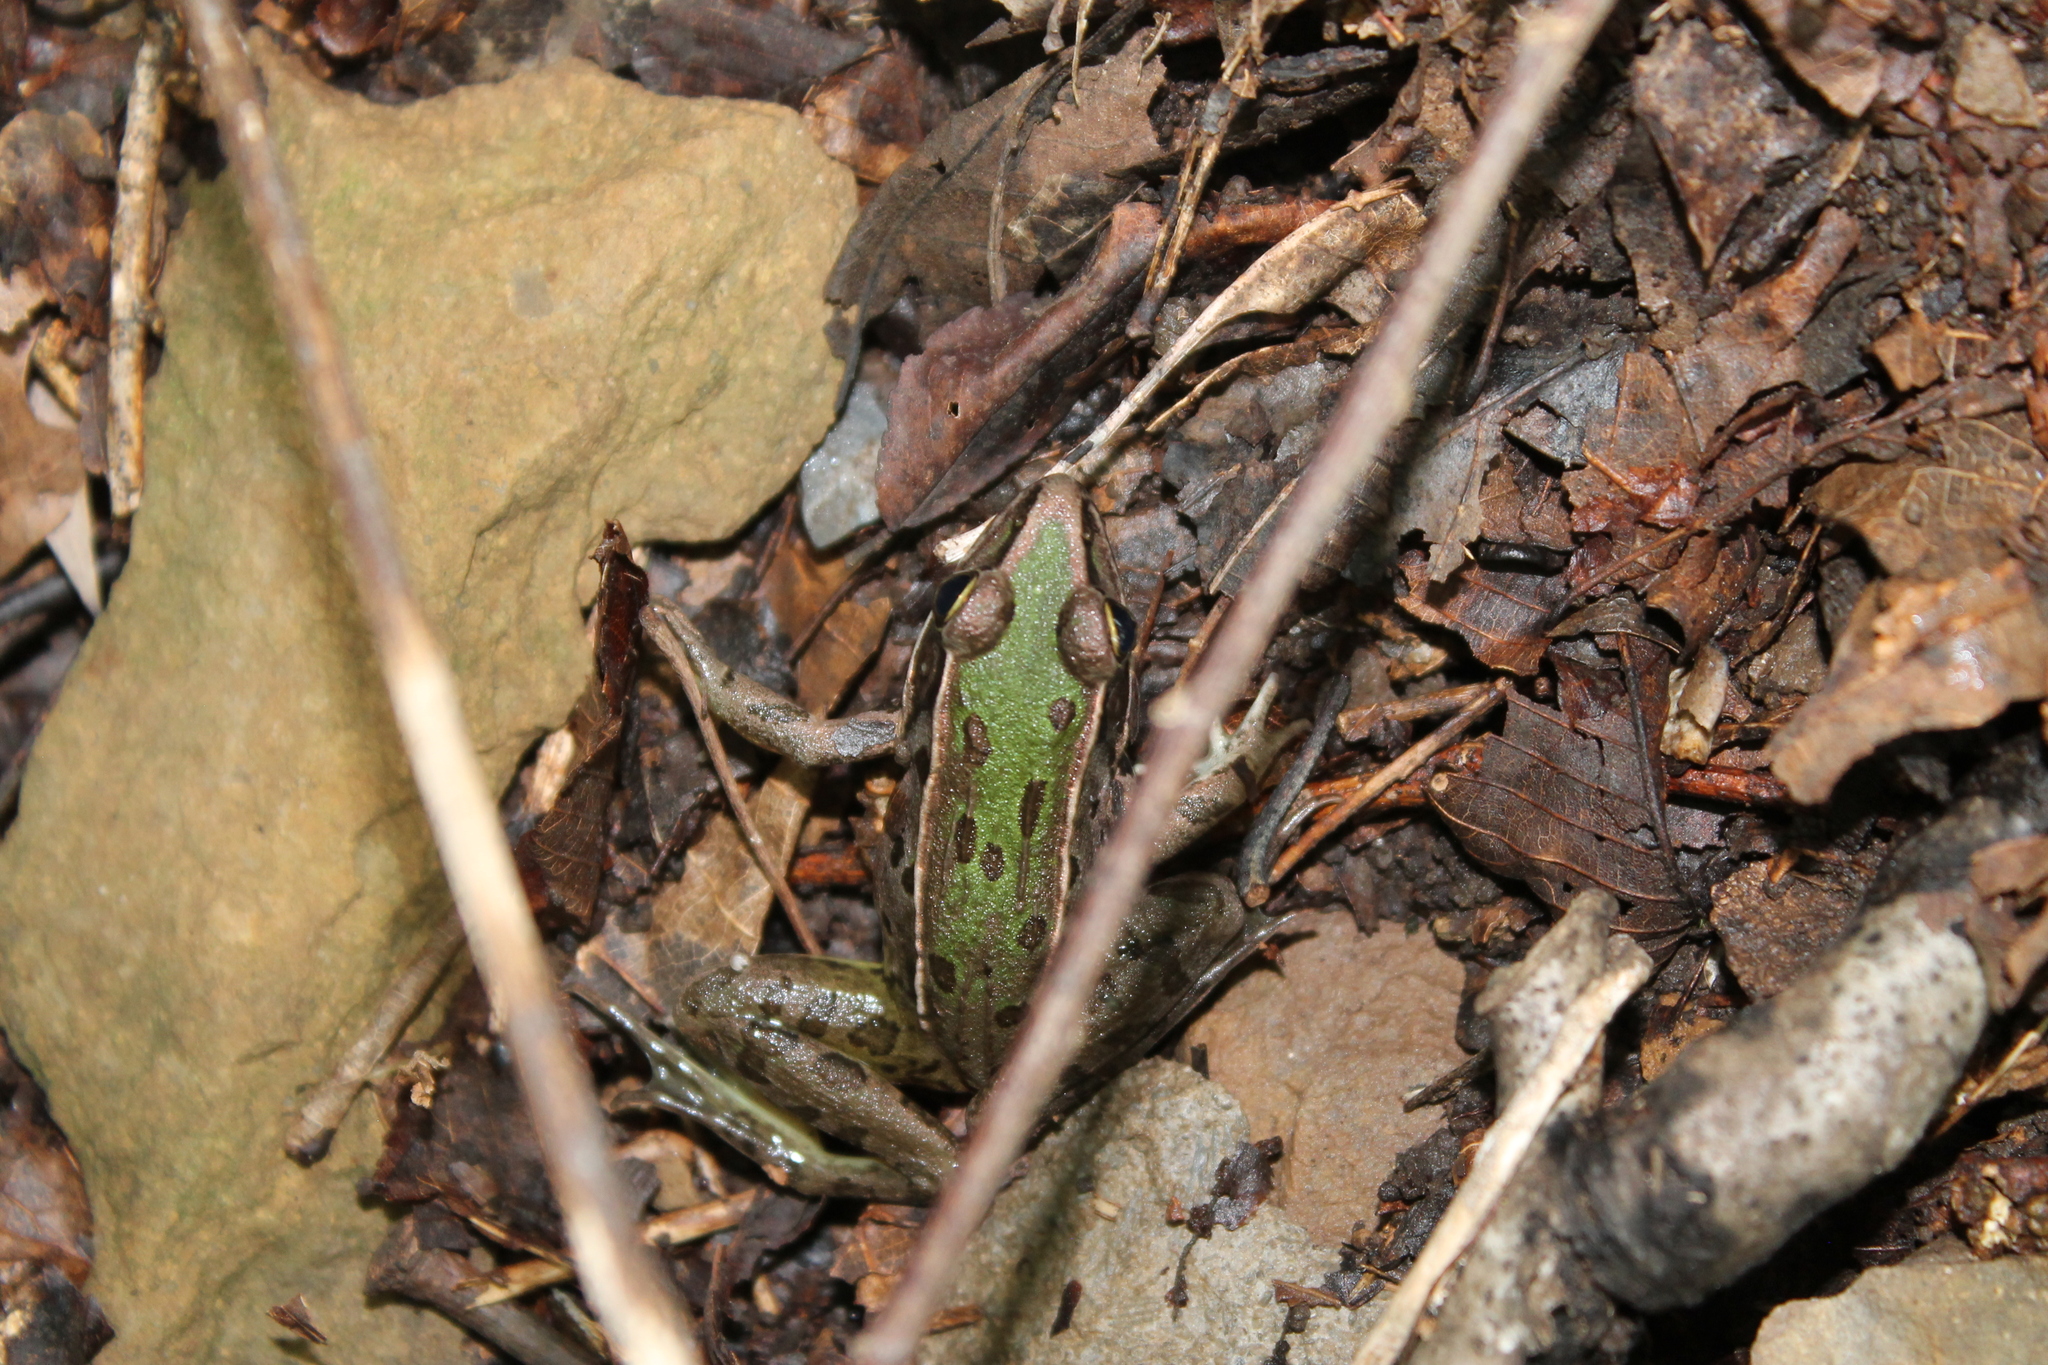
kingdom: Animalia
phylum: Chordata
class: Amphibia
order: Anura
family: Ranidae
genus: Lithobates
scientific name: Lithobates sphenocephalus
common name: Southern leopard frog
